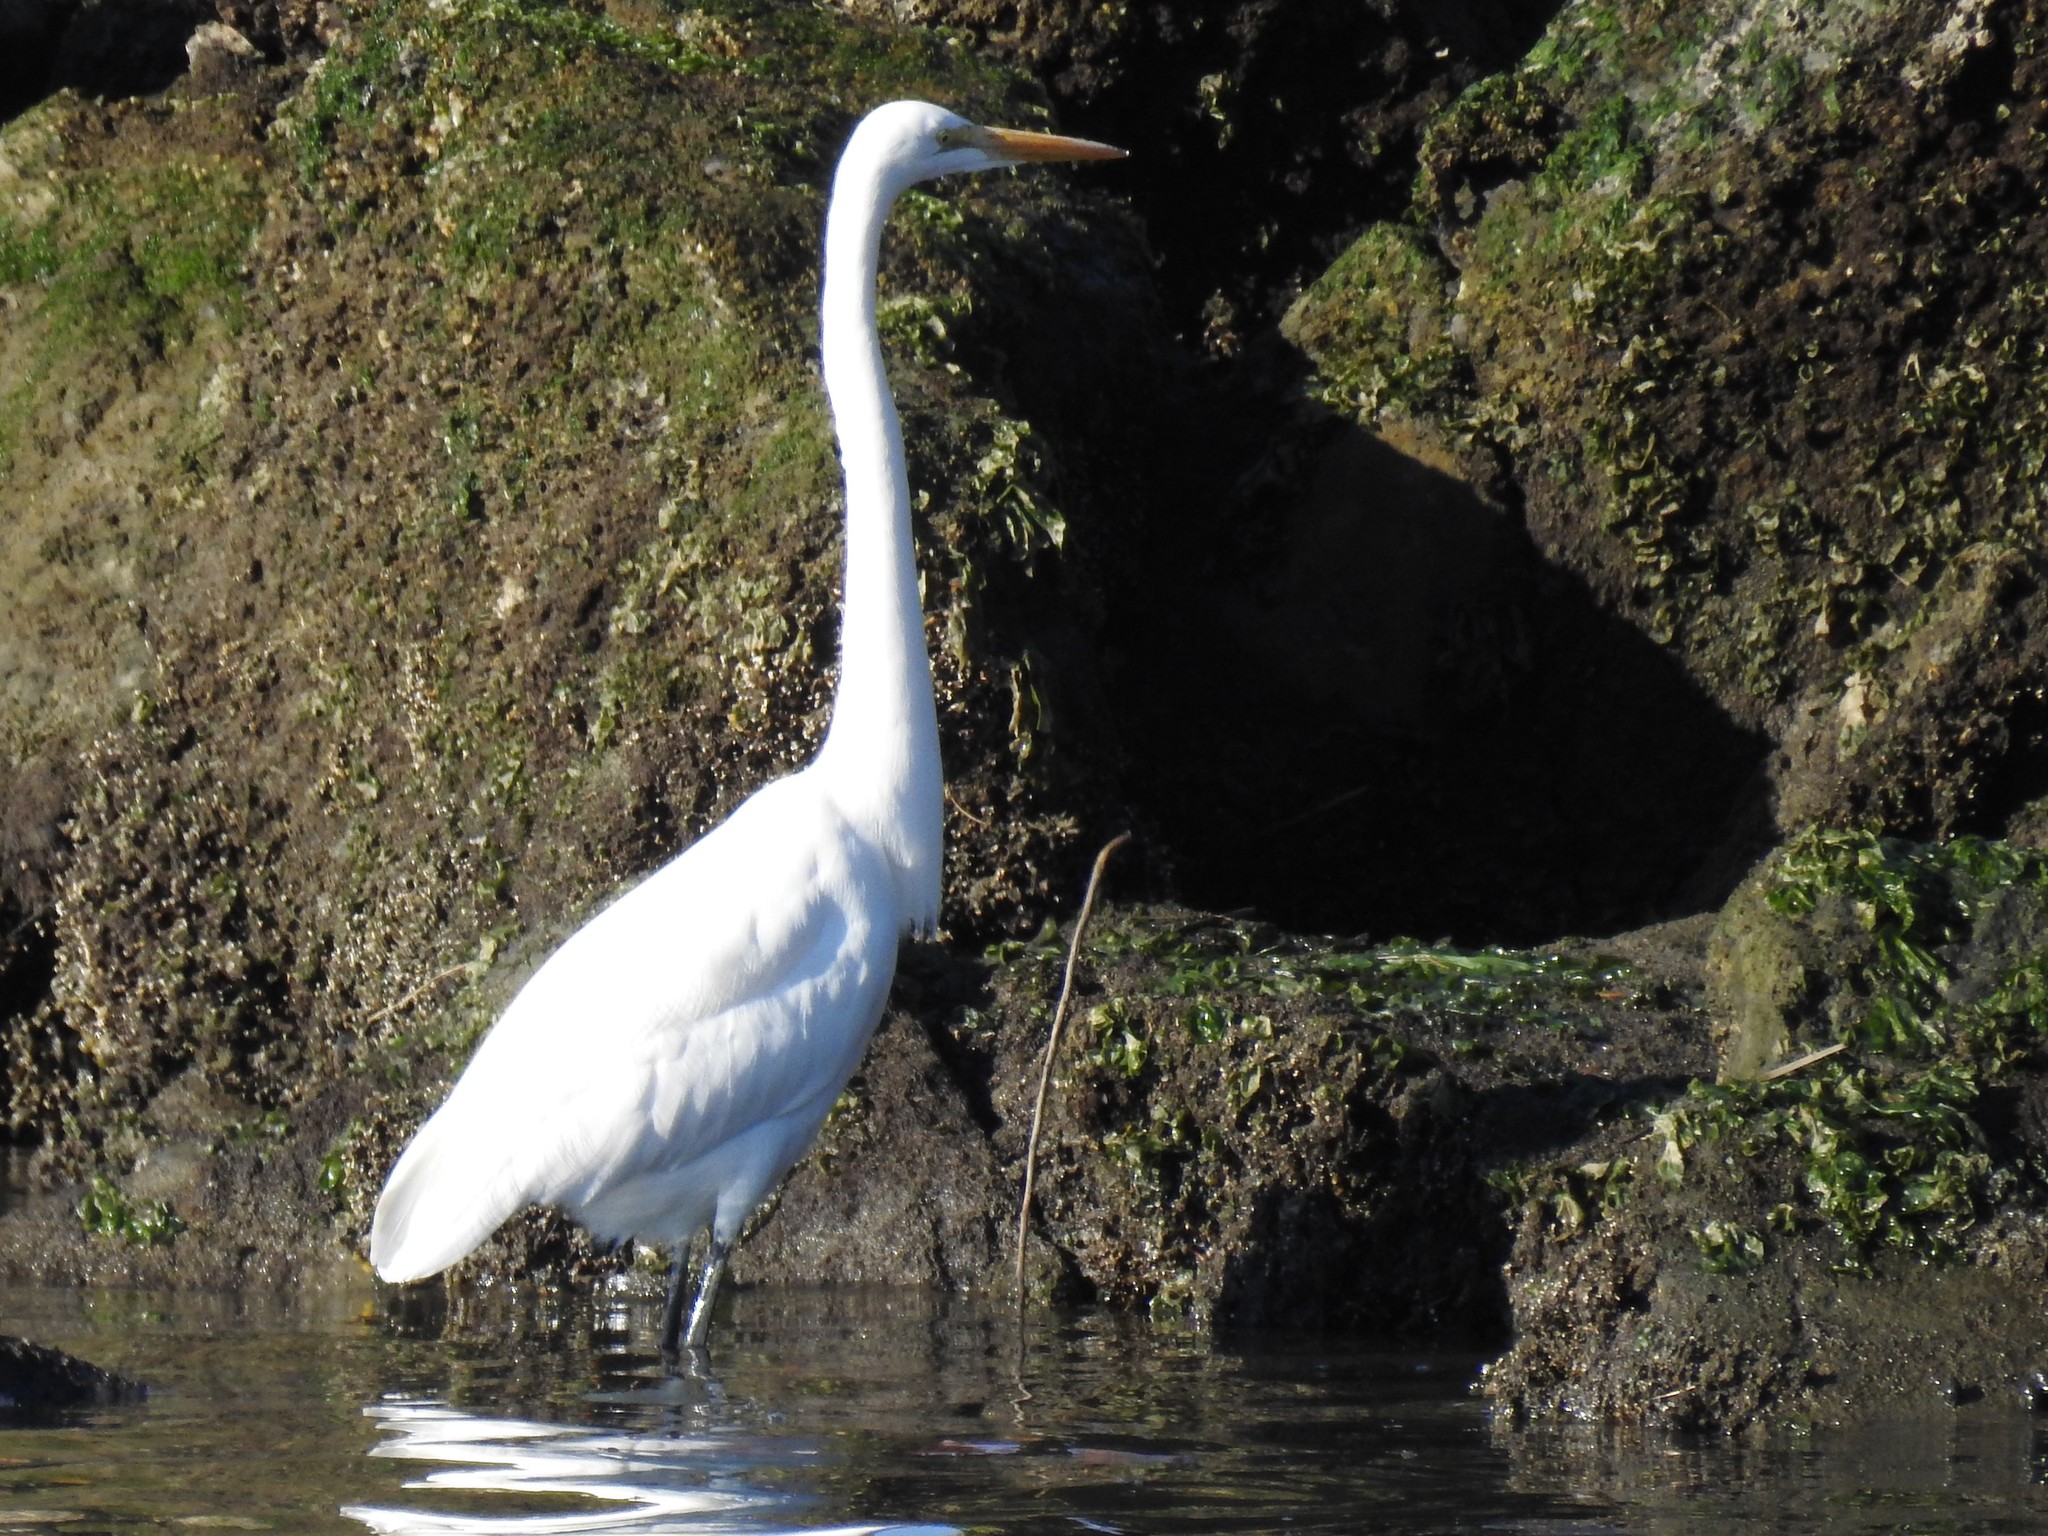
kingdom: Animalia
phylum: Chordata
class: Aves
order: Pelecaniformes
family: Ardeidae
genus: Ardea
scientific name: Ardea alba
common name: Great egret
